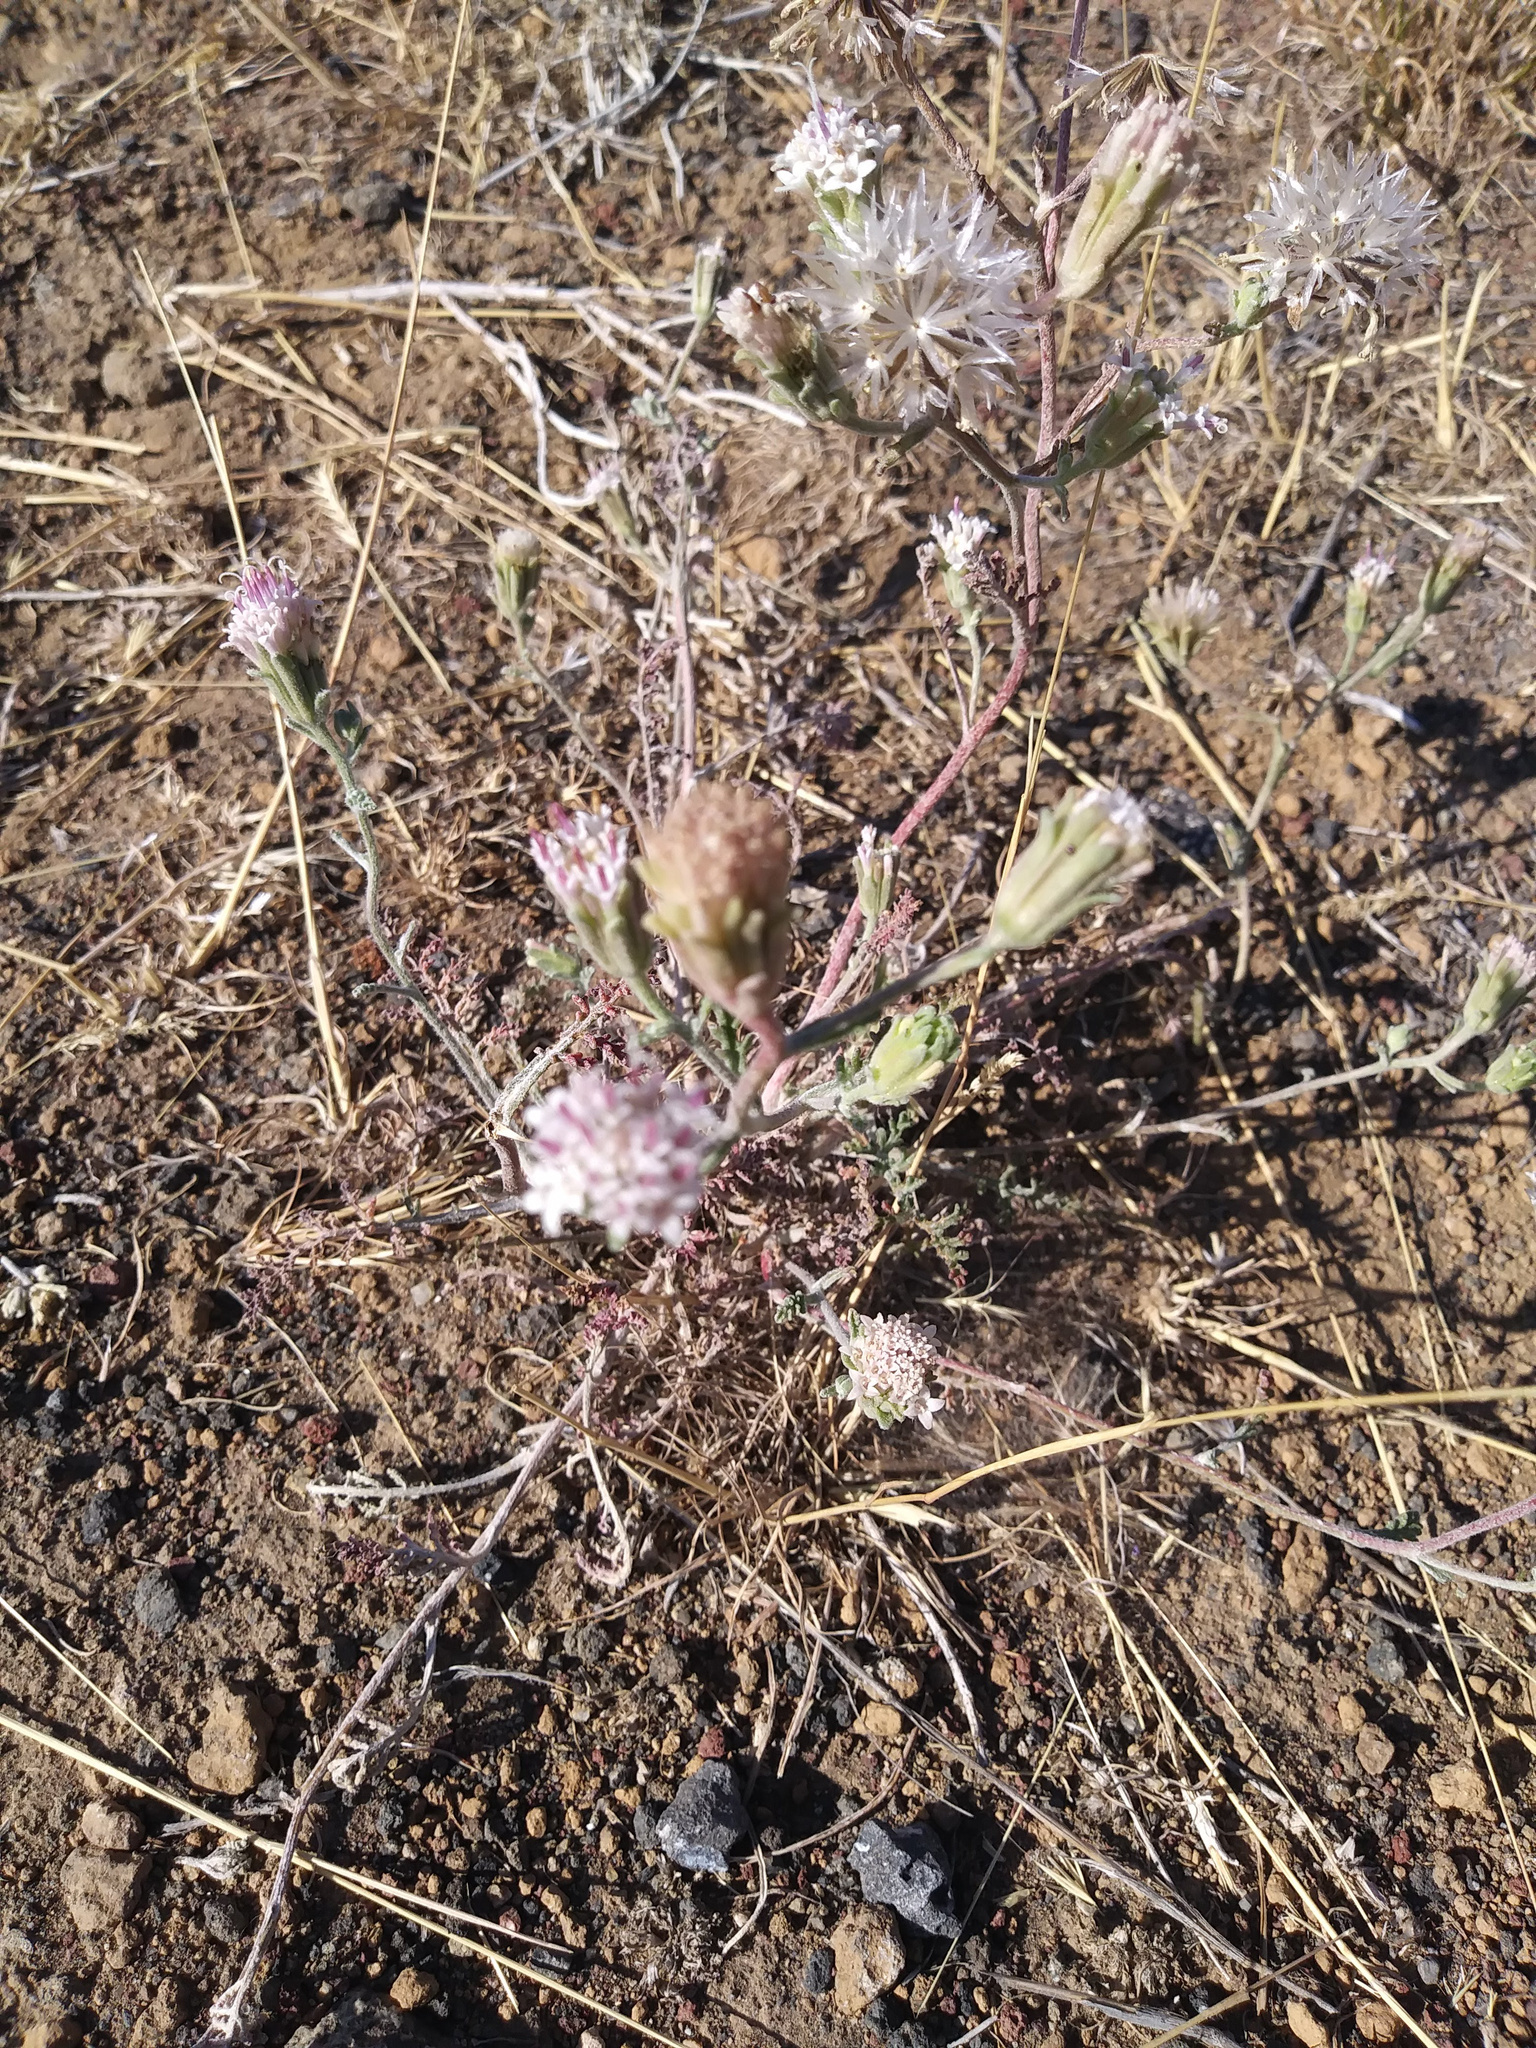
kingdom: Plantae
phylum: Tracheophyta
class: Magnoliopsida
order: Asterales
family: Asteraceae
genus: Chaenactis
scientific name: Chaenactis douglasii
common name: Hoary pincushion
